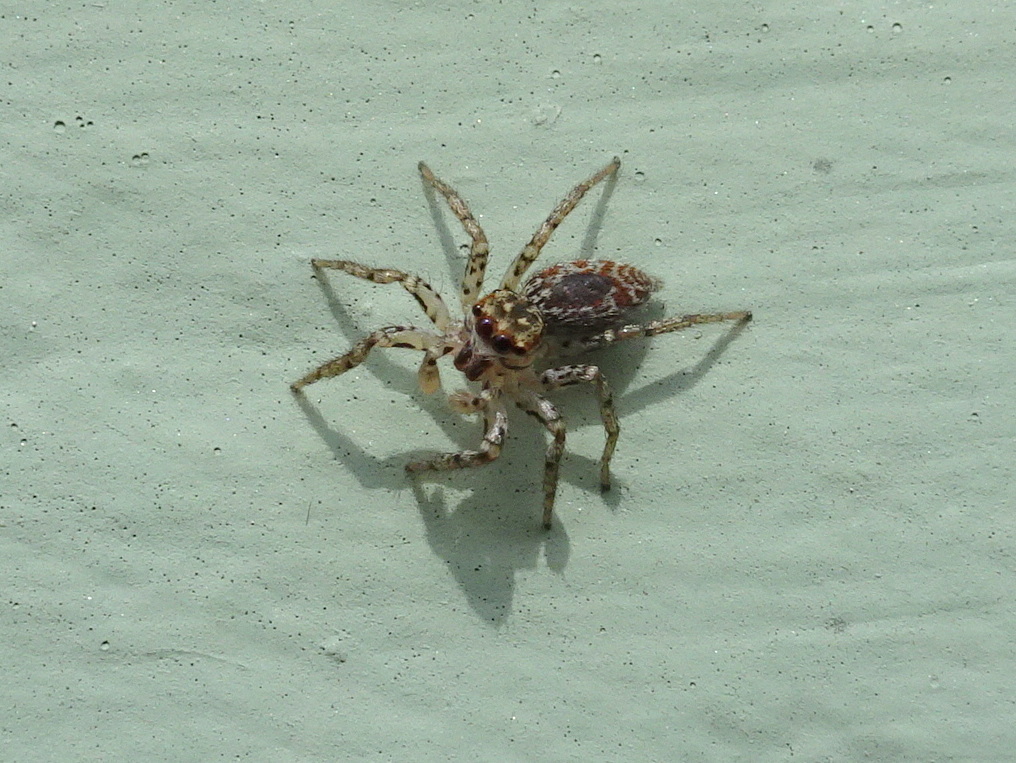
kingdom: Animalia
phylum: Arthropoda
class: Arachnida
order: Araneae
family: Salticidae
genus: Maevia
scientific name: Maevia inclemens
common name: Dimorphic jumper
